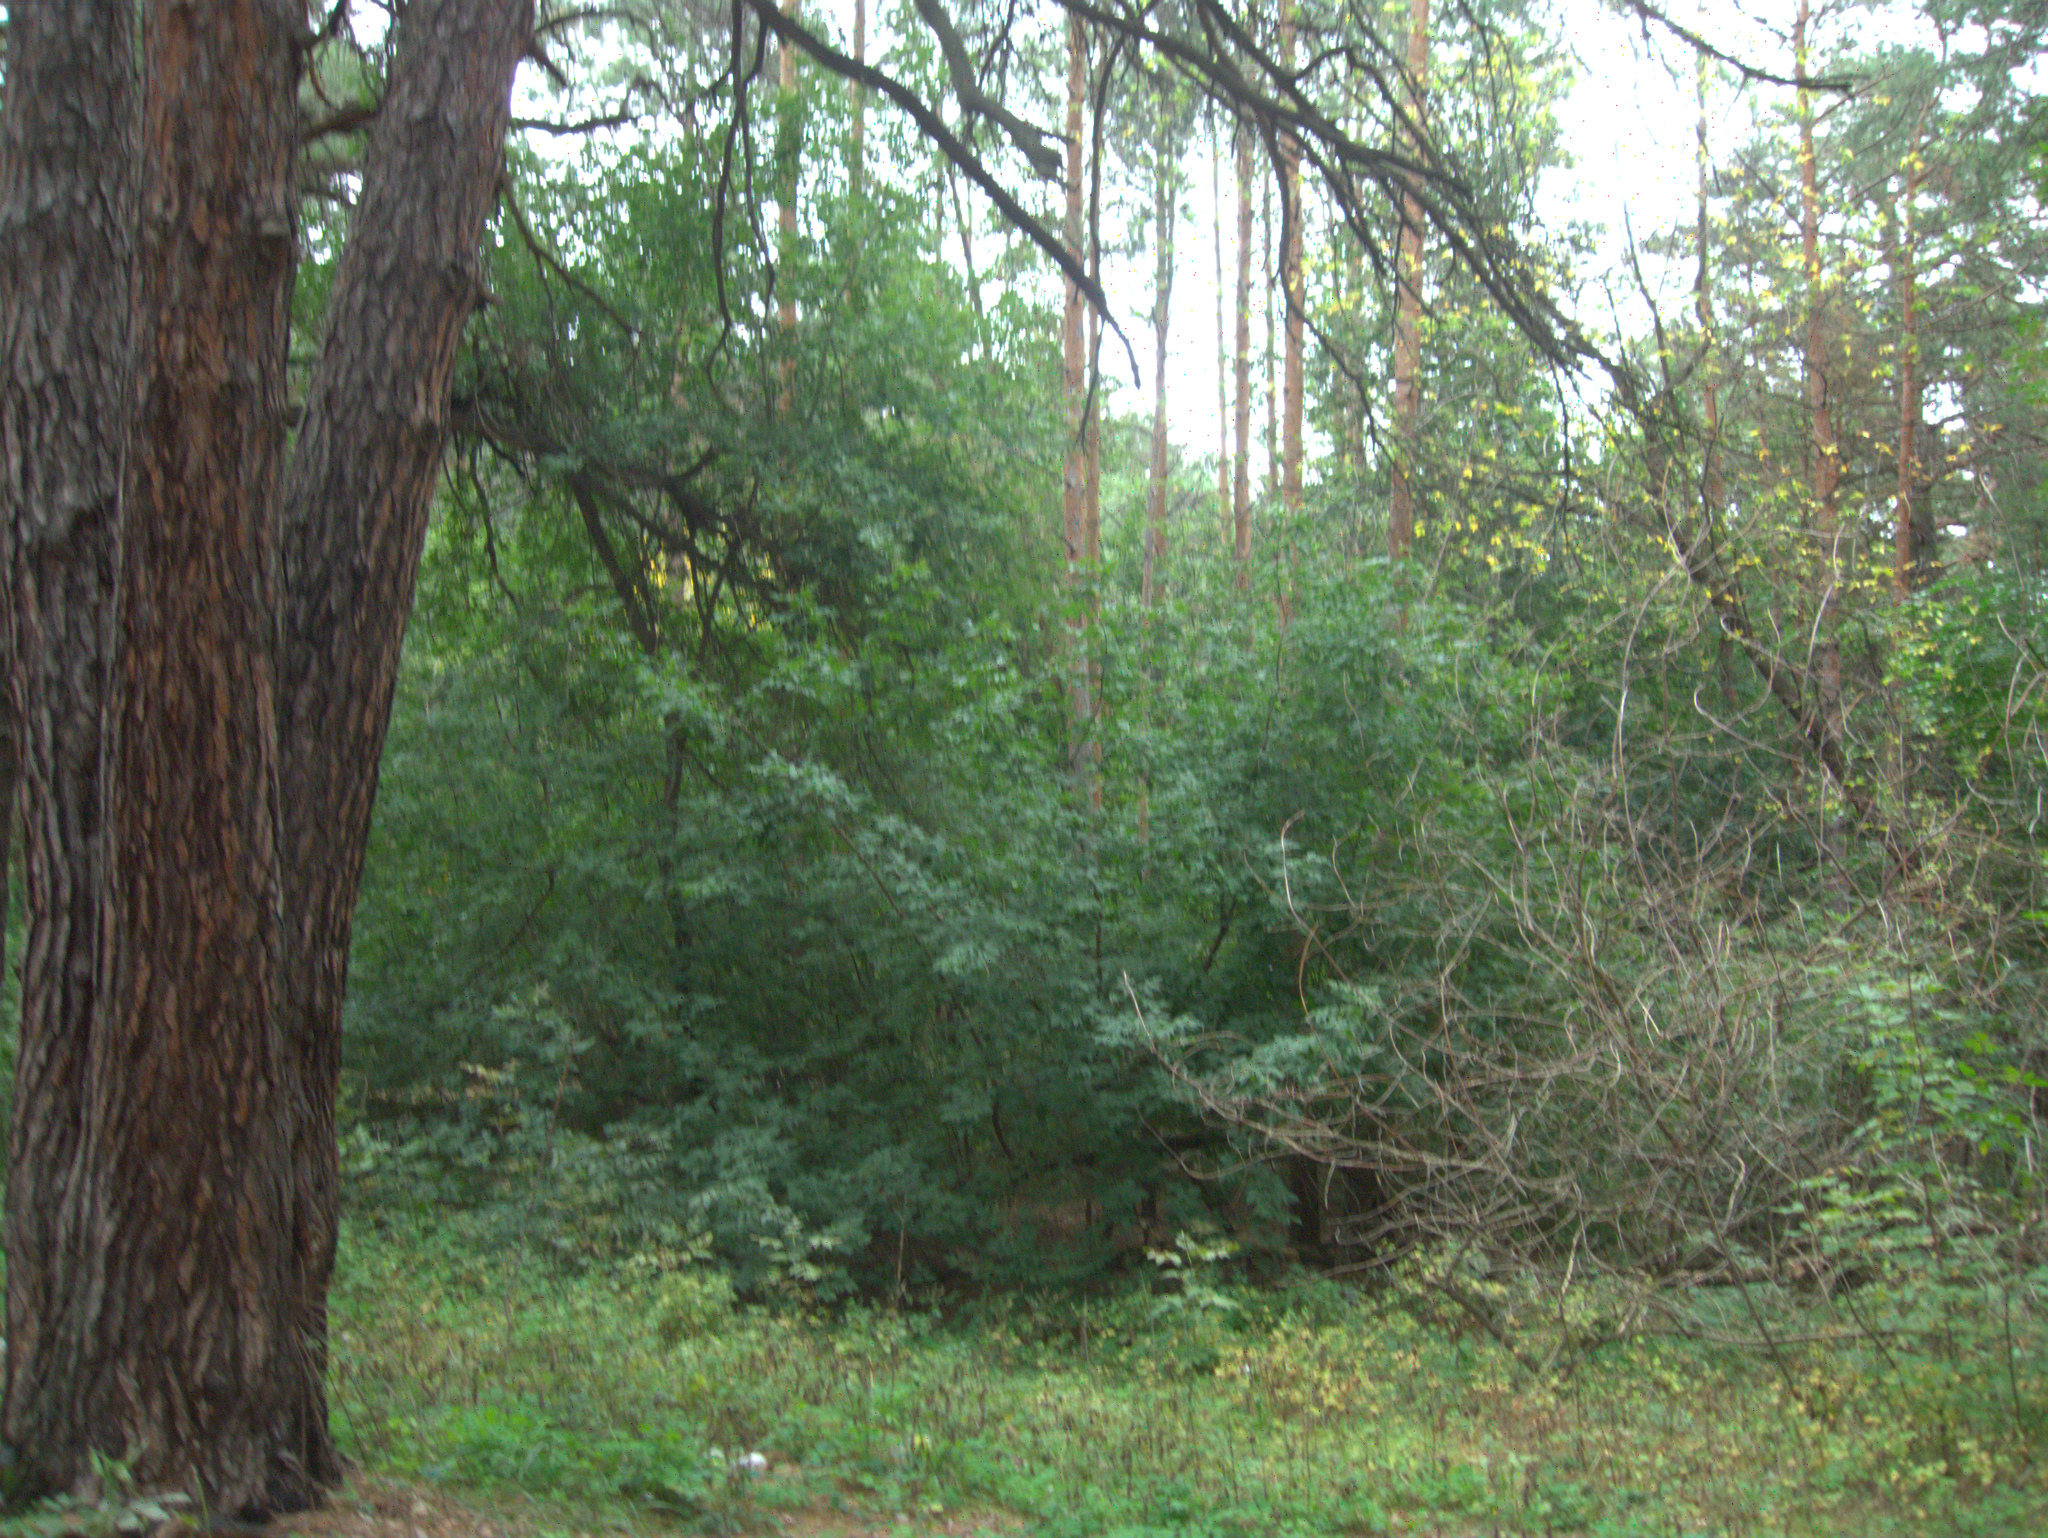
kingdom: Plantae
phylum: Tracheophyta
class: Pinopsida
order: Pinales
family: Pinaceae
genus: Pinus
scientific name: Pinus sylvestris
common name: Scots pine
